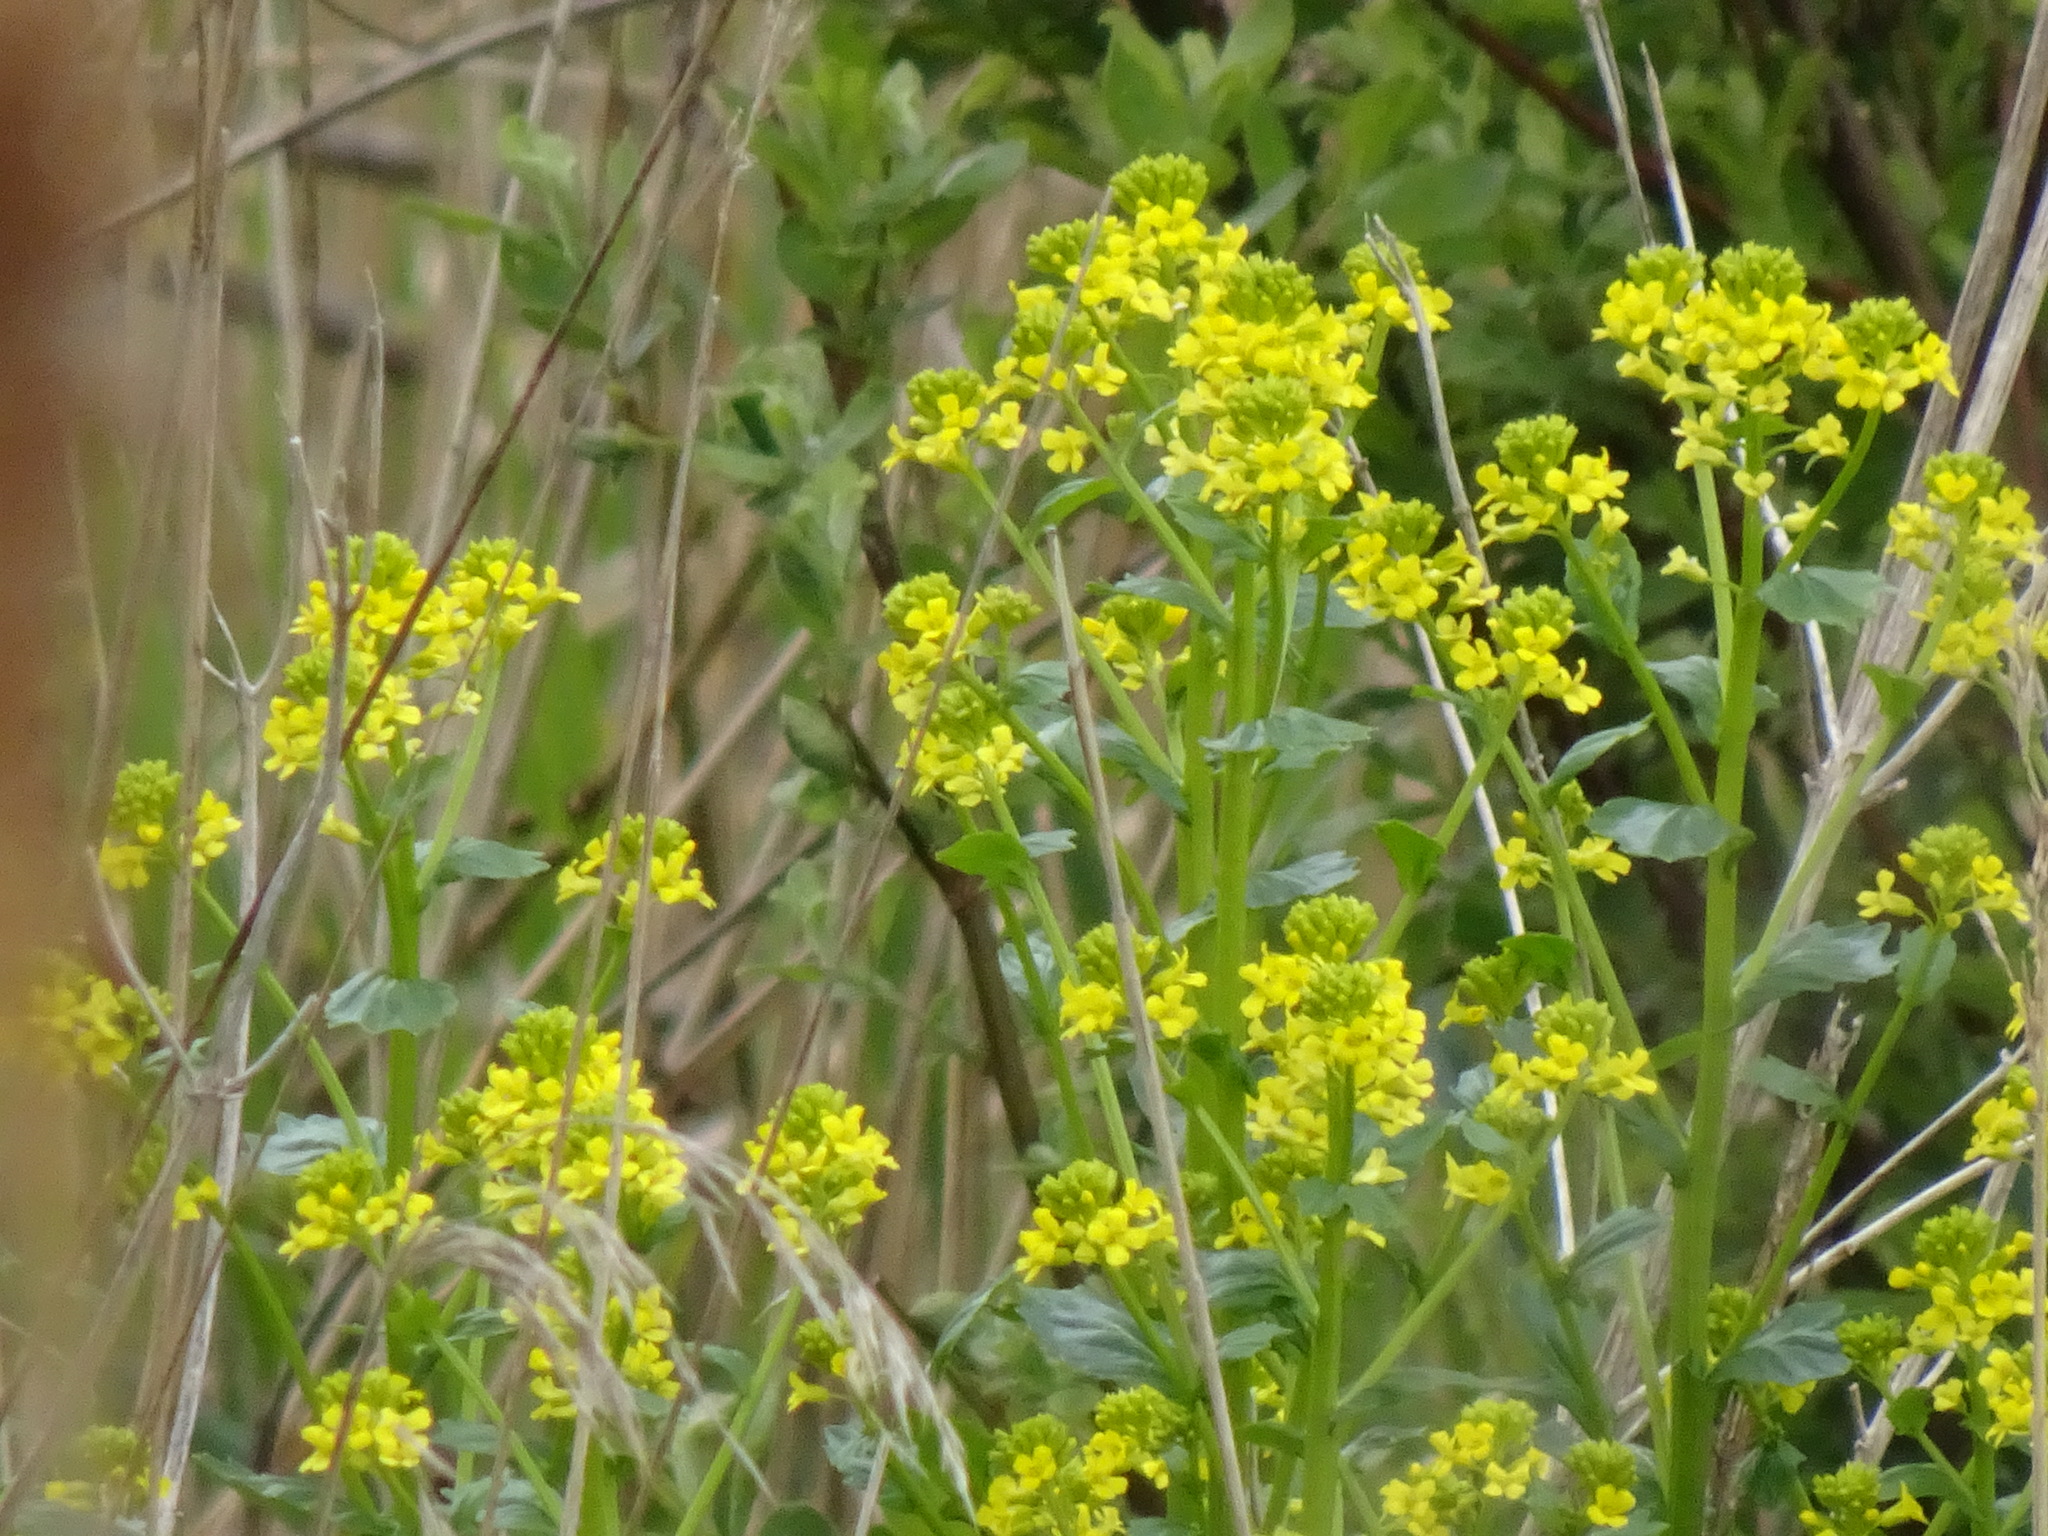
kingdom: Plantae
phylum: Tracheophyta
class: Magnoliopsida
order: Brassicales
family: Brassicaceae
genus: Barbarea
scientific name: Barbarea vulgaris
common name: Cressy-greens
